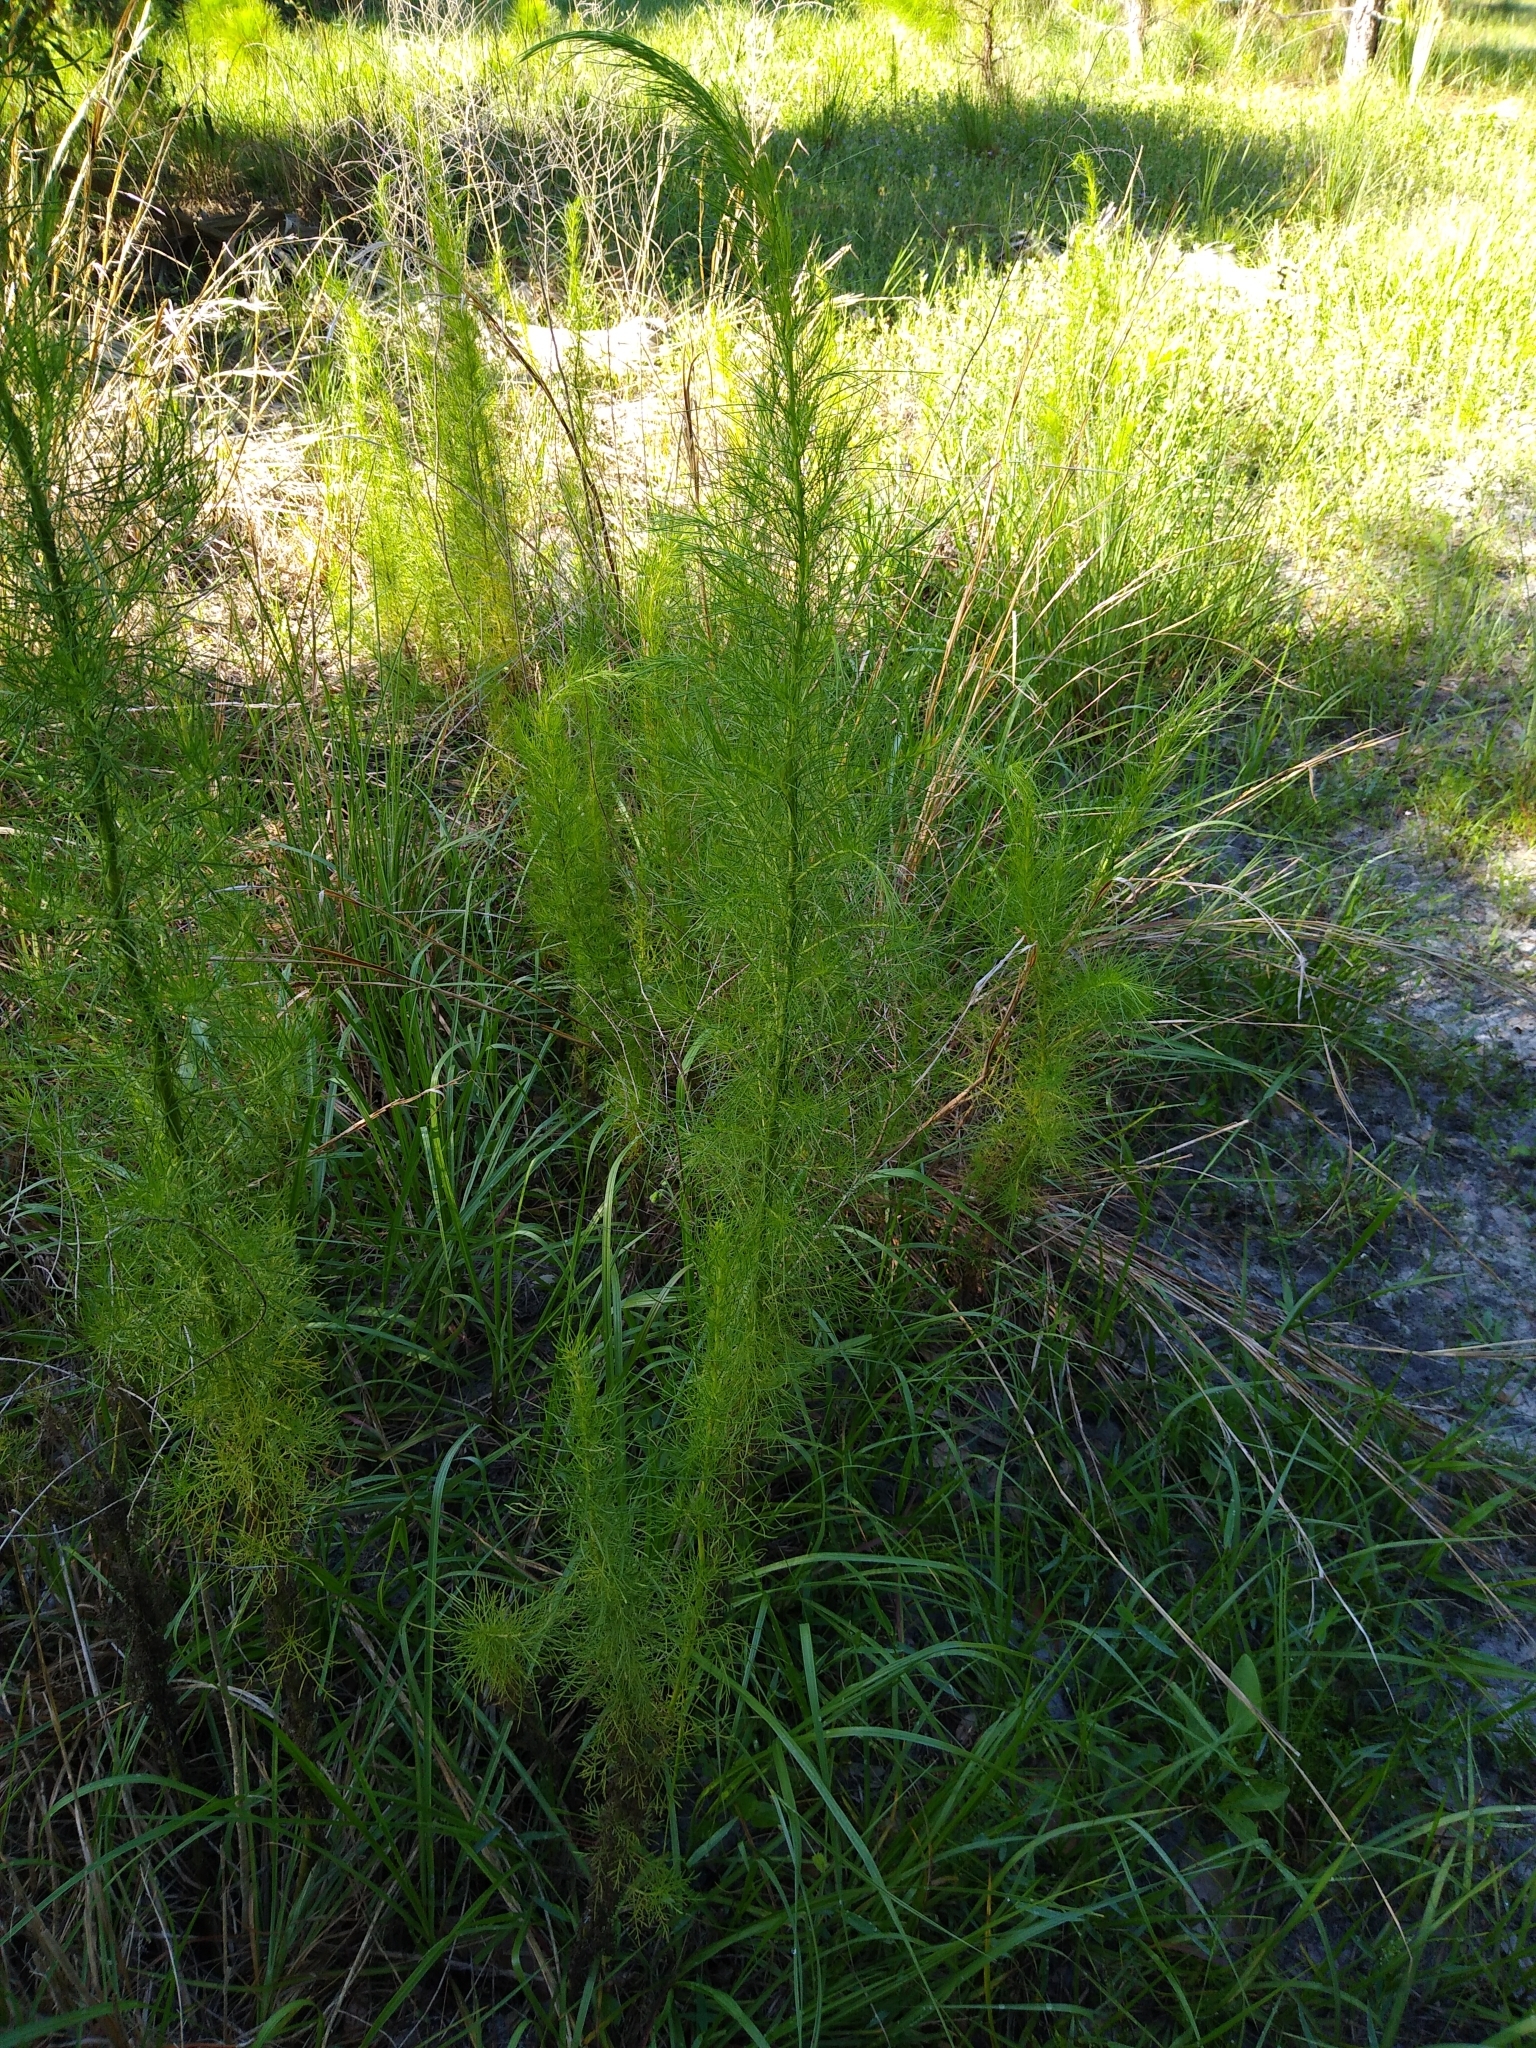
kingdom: Plantae
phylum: Tracheophyta
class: Magnoliopsida
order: Asterales
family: Asteraceae
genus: Eupatorium
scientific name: Eupatorium capillifolium
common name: Dog-fennel
